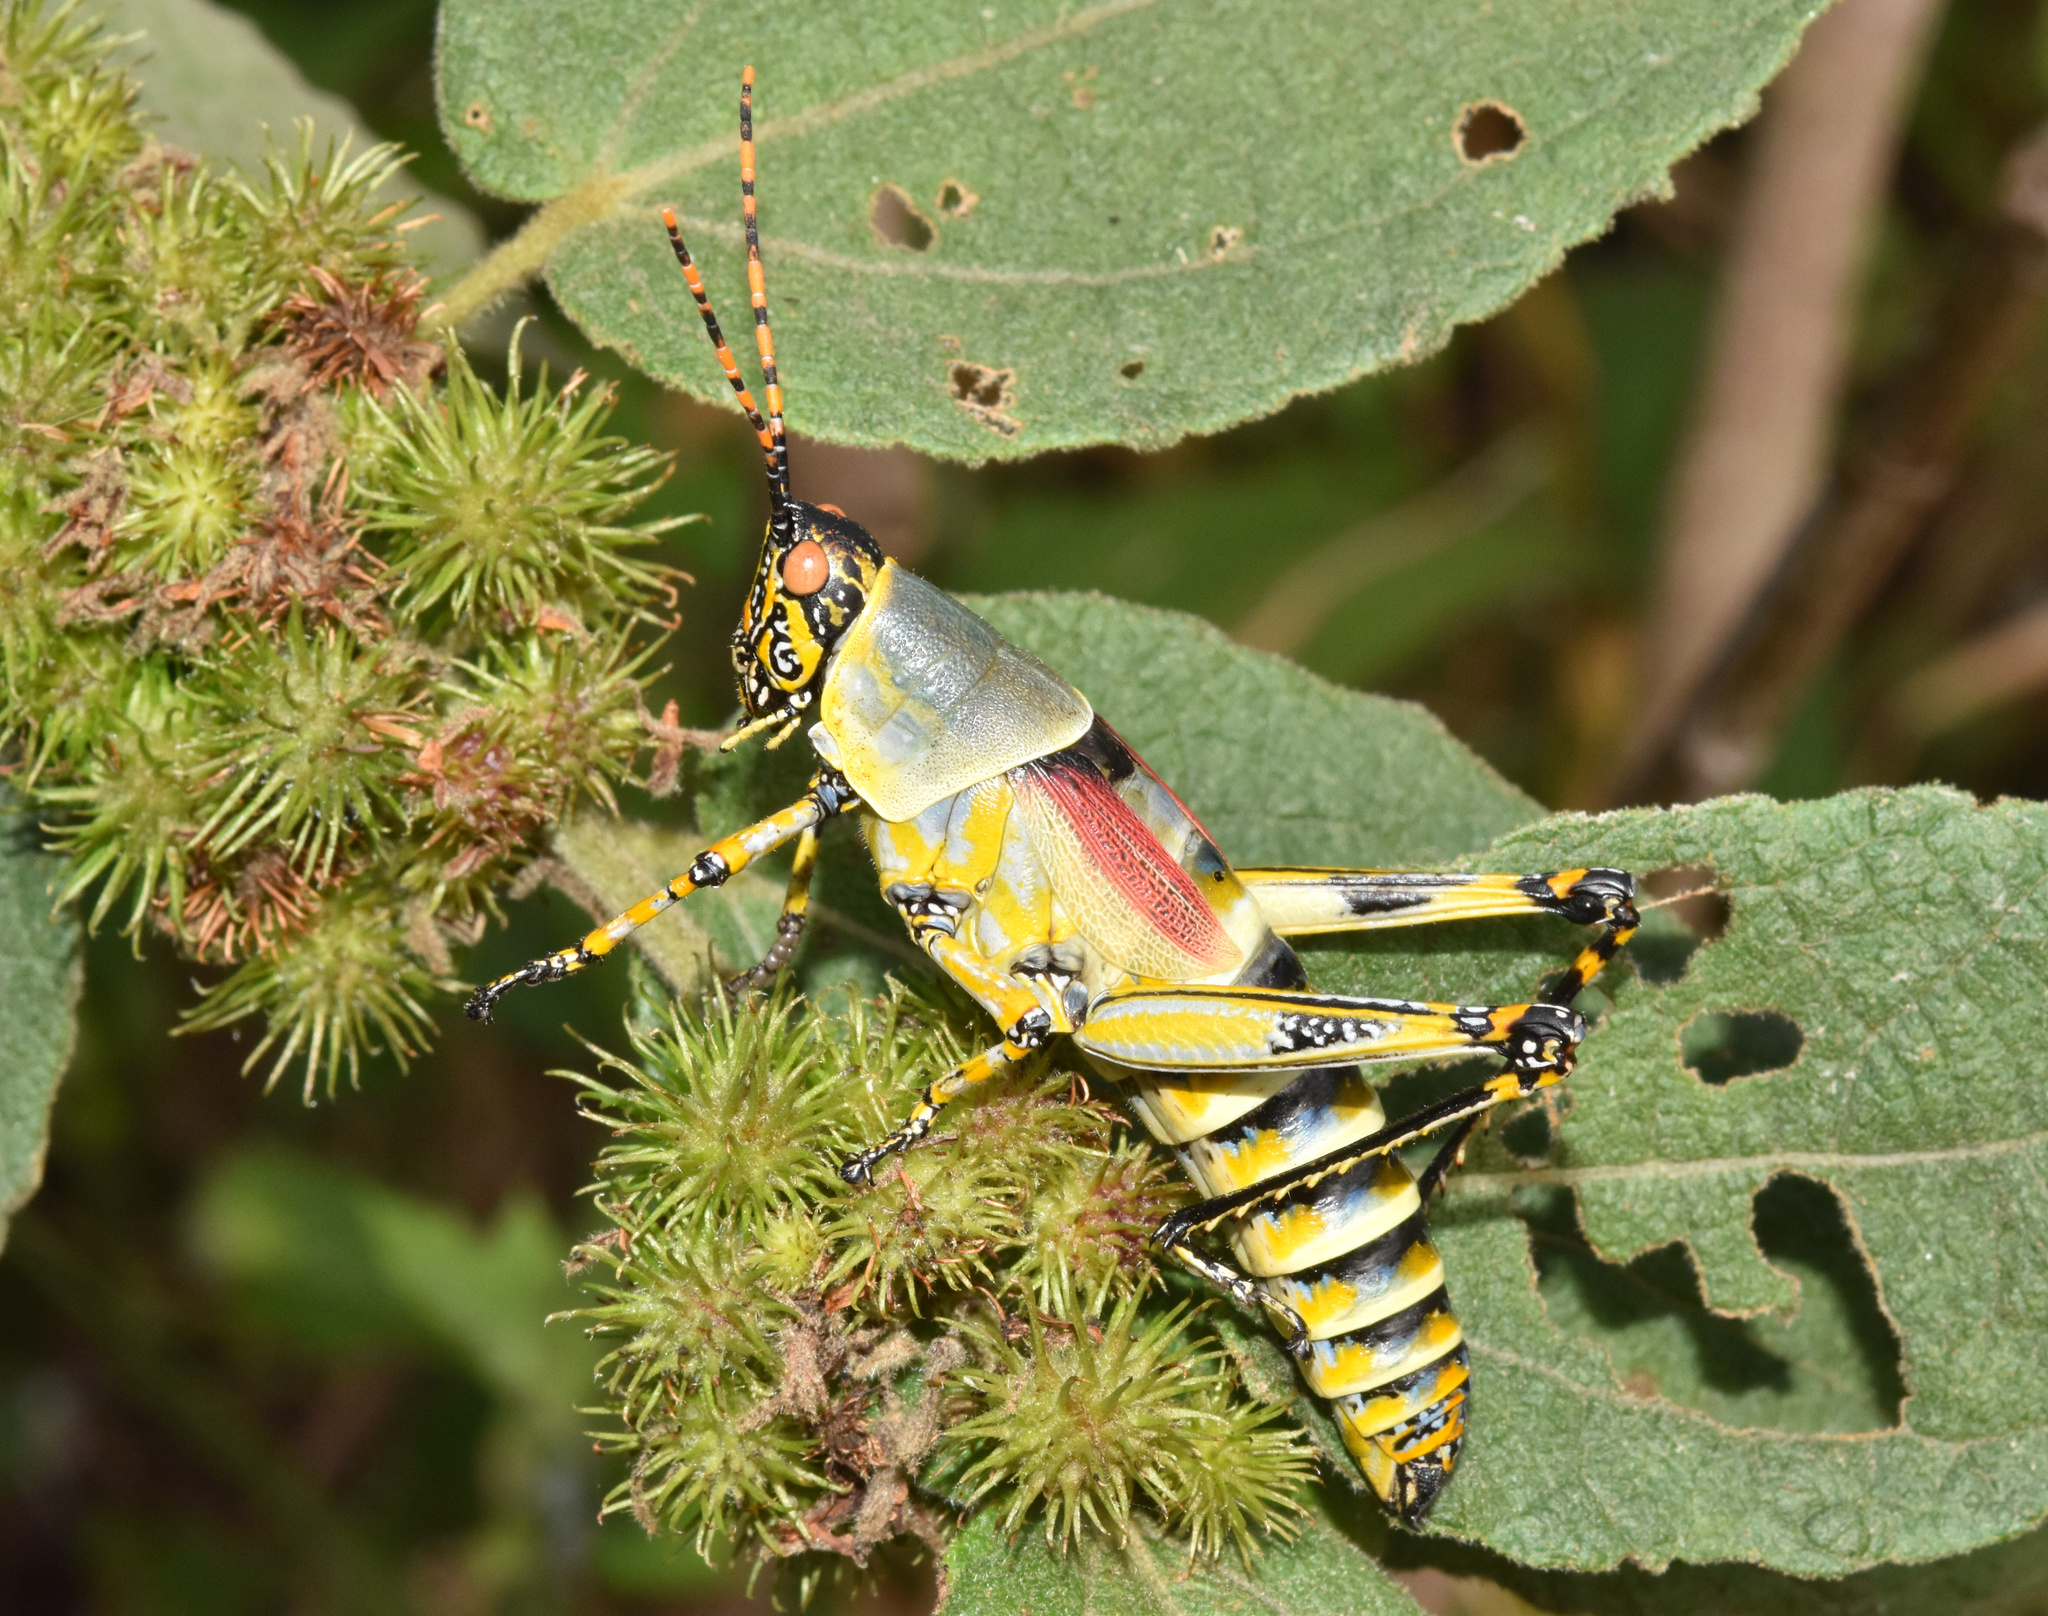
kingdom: Animalia
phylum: Arthropoda
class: Insecta
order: Orthoptera
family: Pyrgomorphidae
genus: Zonocerus
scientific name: Zonocerus elegans
